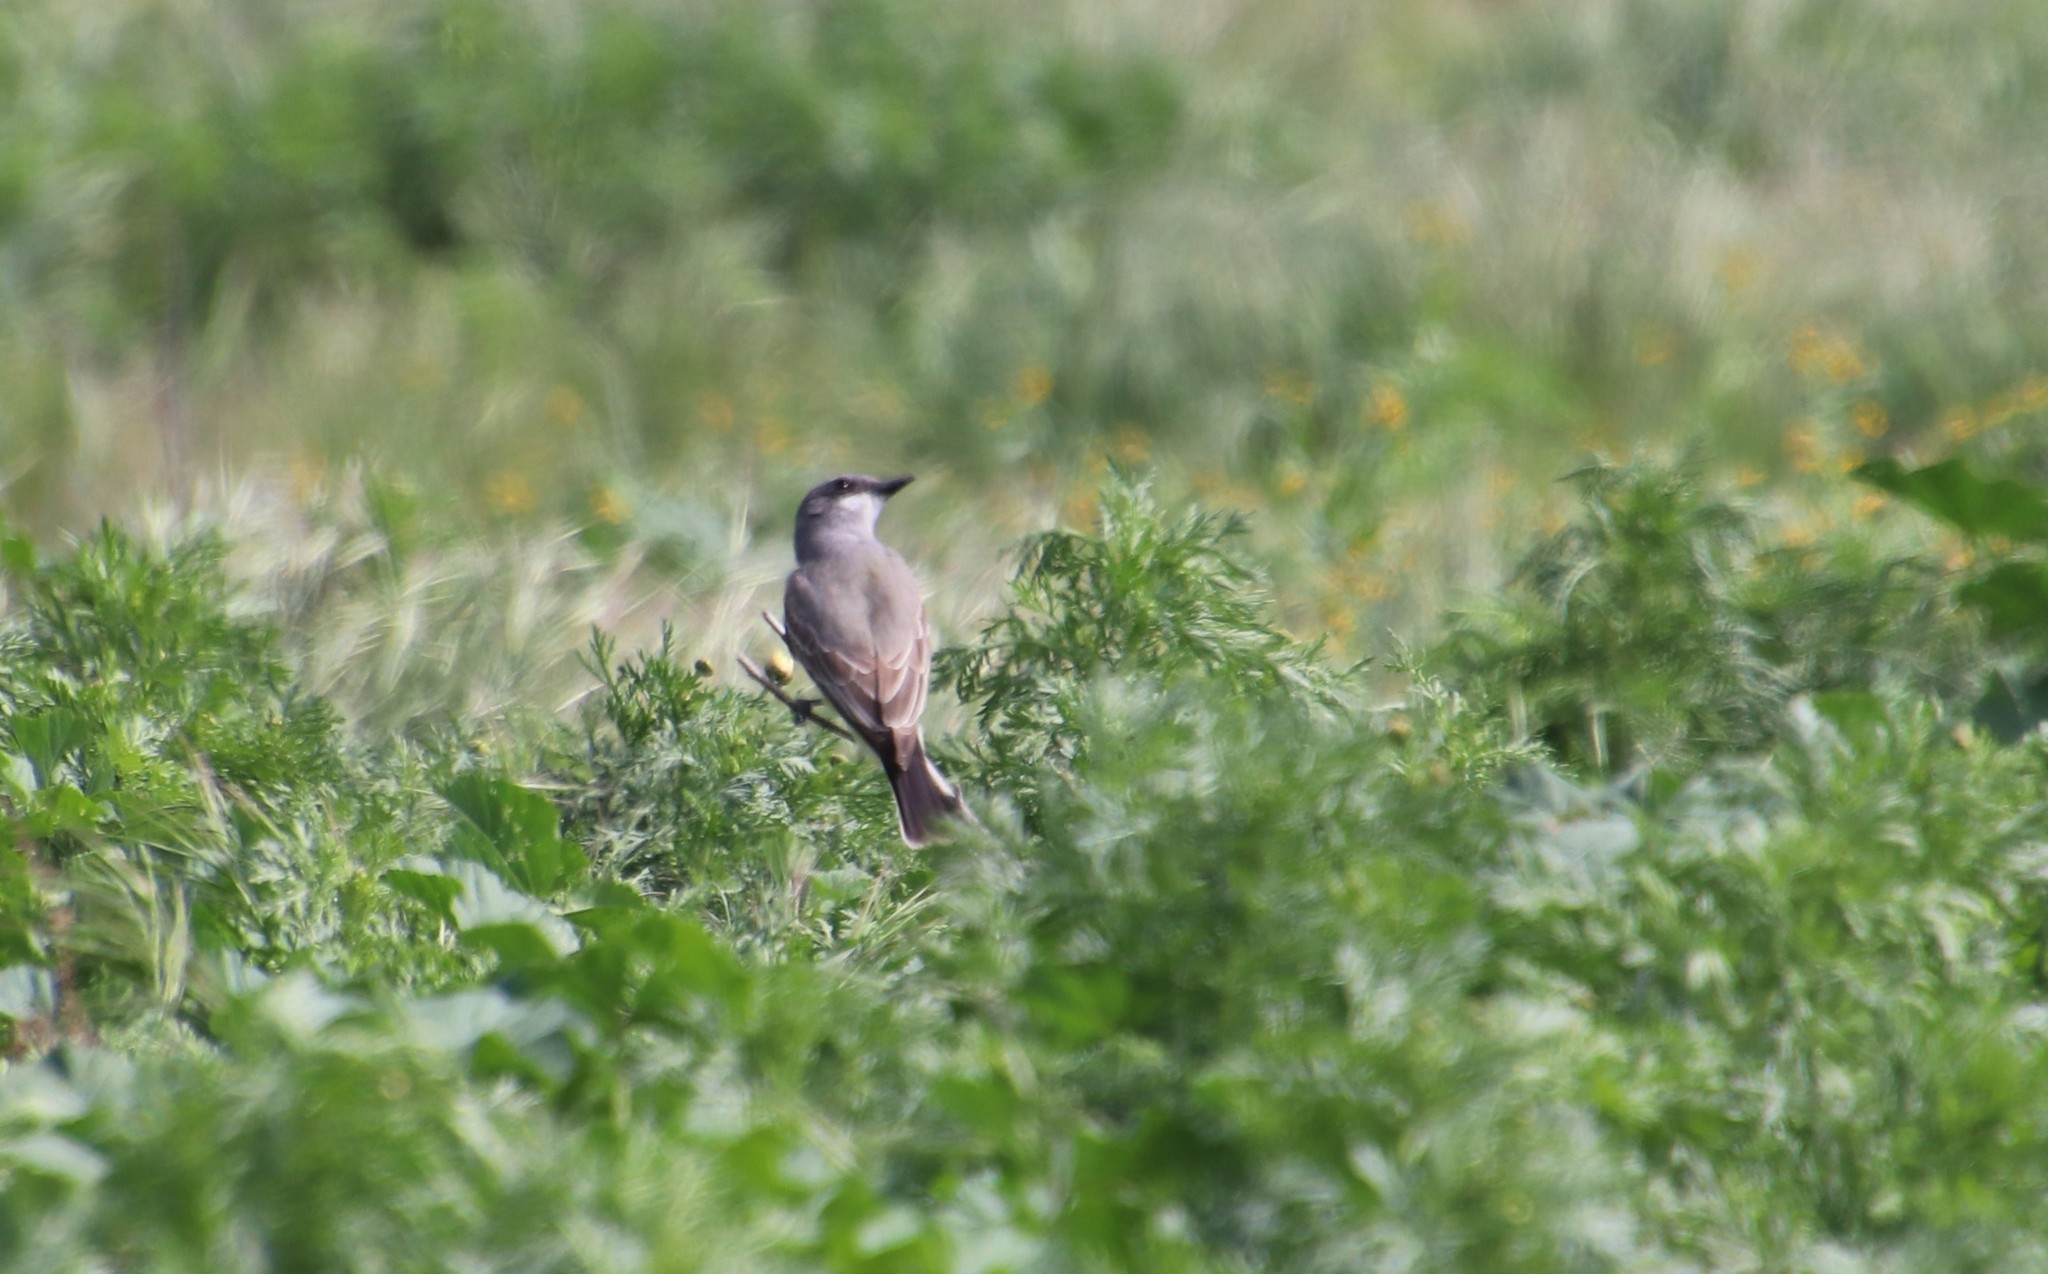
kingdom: Animalia
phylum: Chordata
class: Aves
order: Passeriformes
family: Tyrannidae
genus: Tyrannus
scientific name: Tyrannus vociferans
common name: Cassin's kingbird
